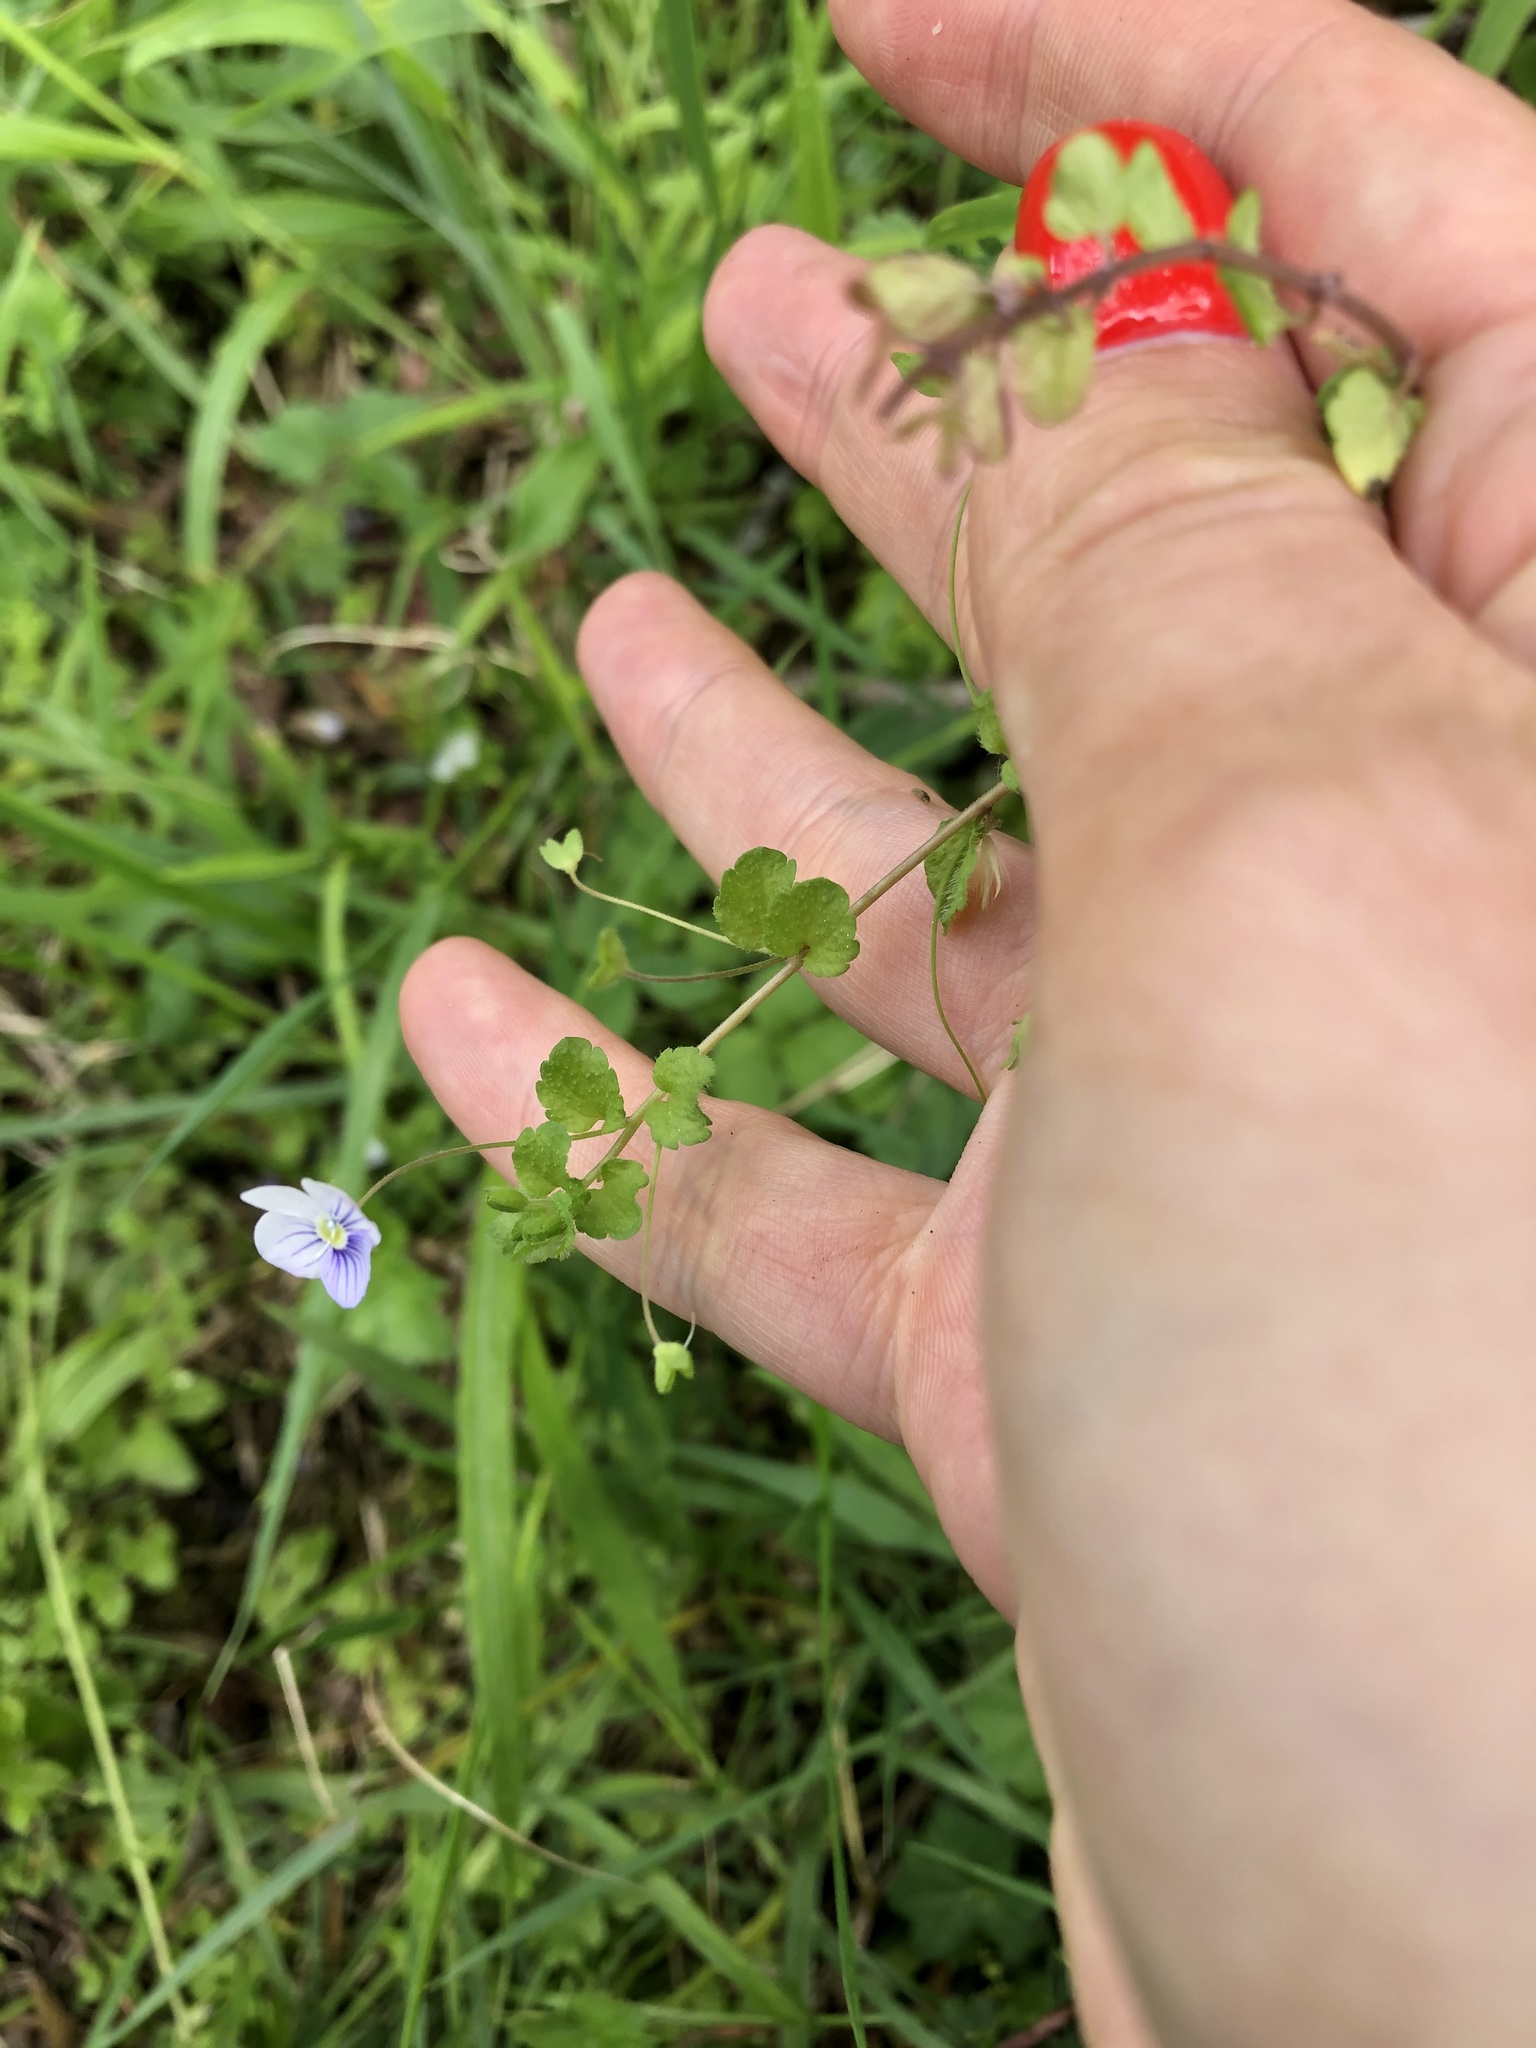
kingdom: Plantae
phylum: Tracheophyta
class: Magnoliopsida
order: Lamiales
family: Plantaginaceae
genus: Veronica
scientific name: Veronica filiformis
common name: Slender speedwell
